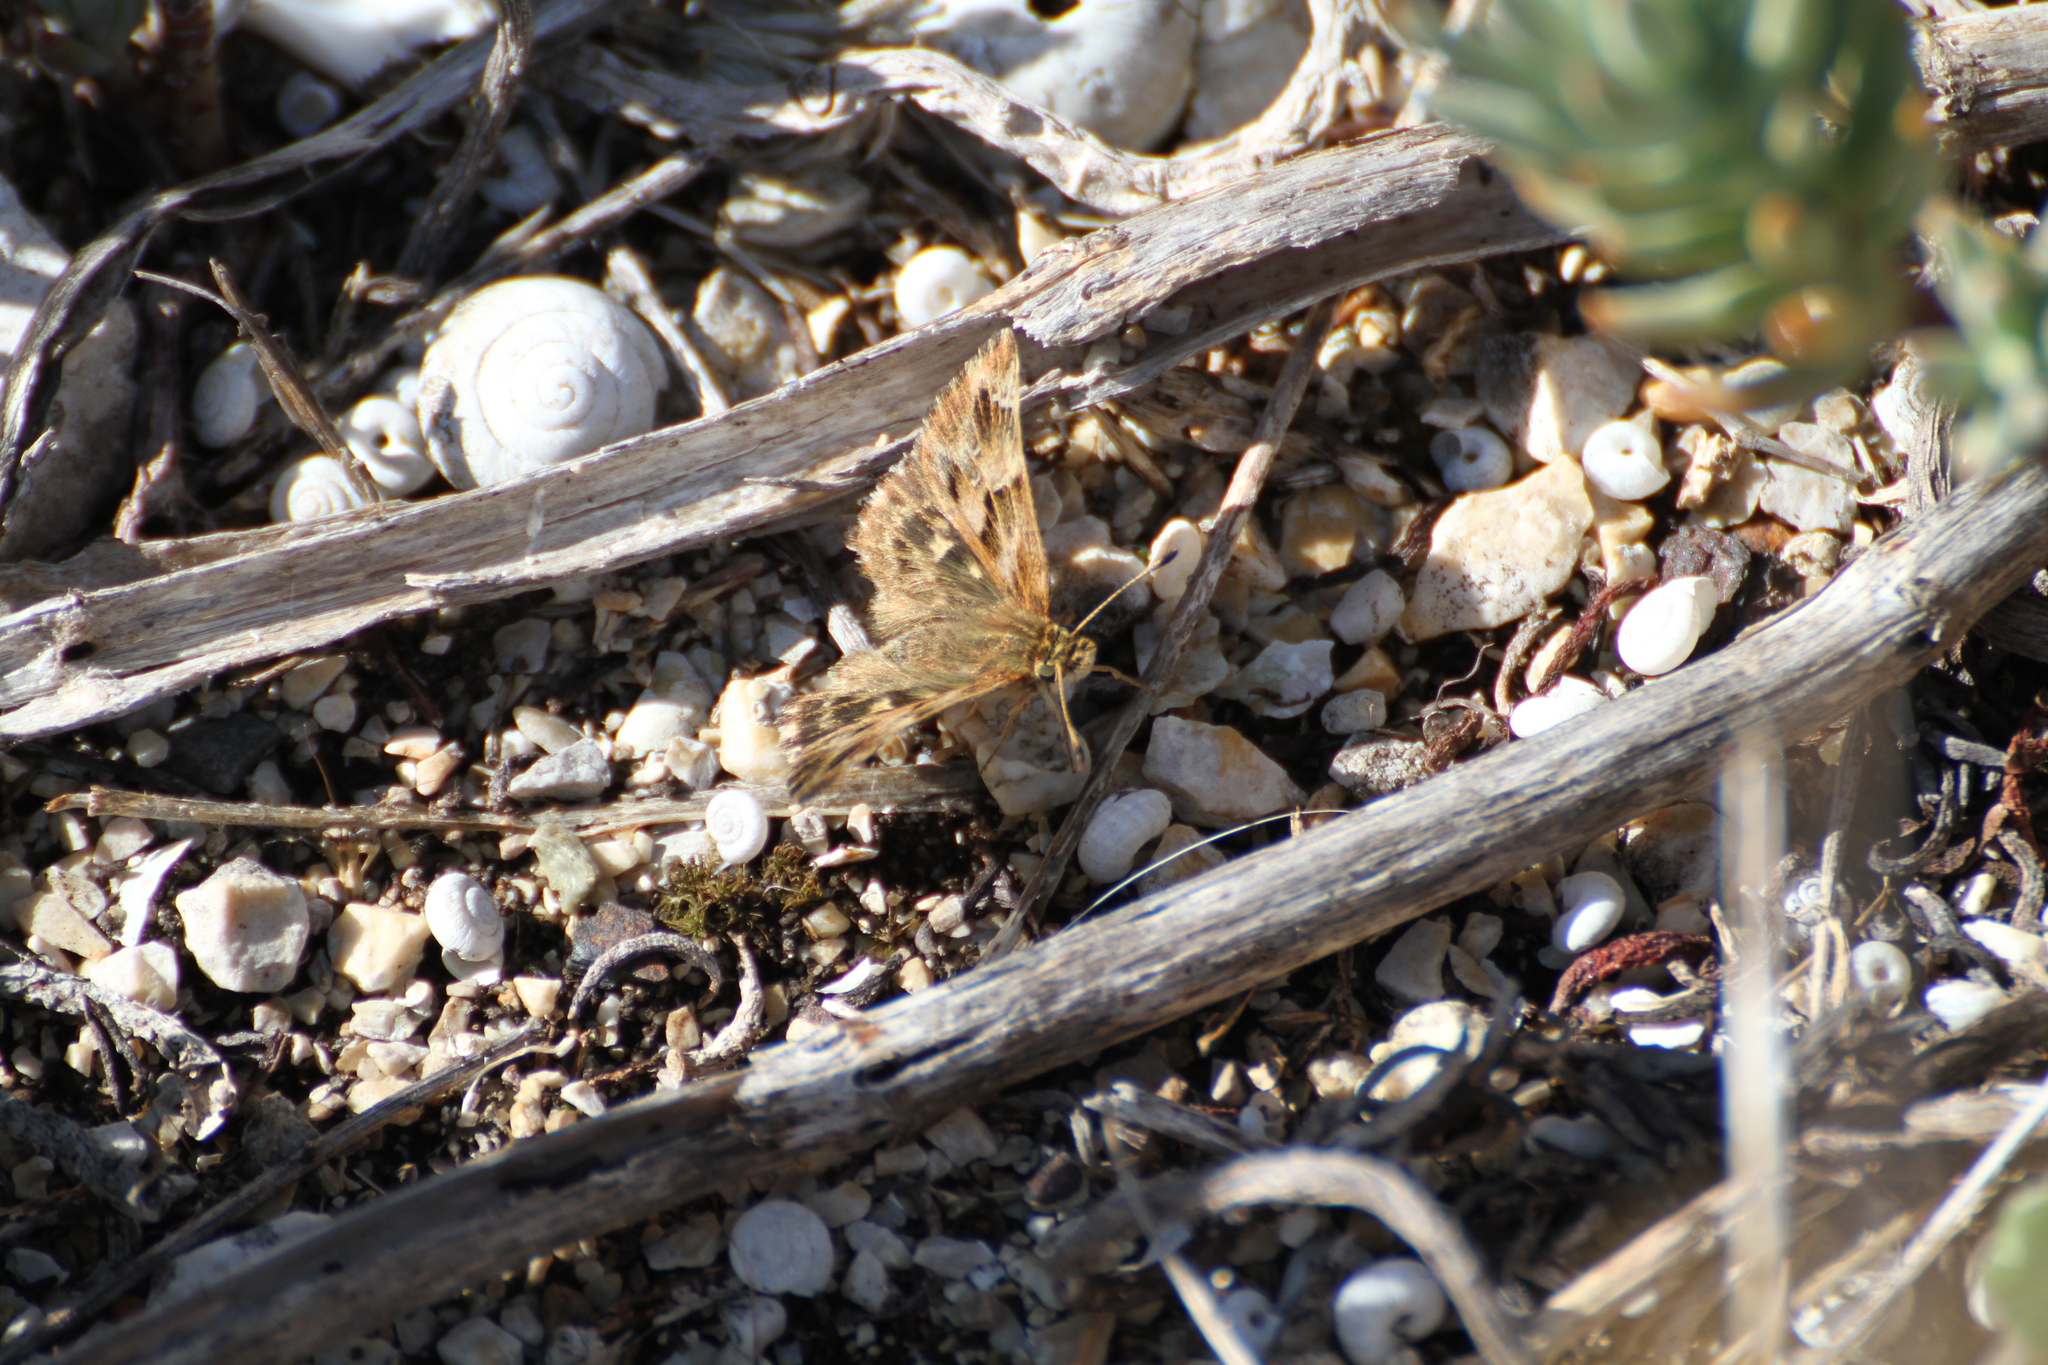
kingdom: Animalia
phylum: Arthropoda
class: Insecta
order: Lepidoptera
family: Hesperiidae
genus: Carcharodus
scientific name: Carcharodus alceae
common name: Mallow skipper
